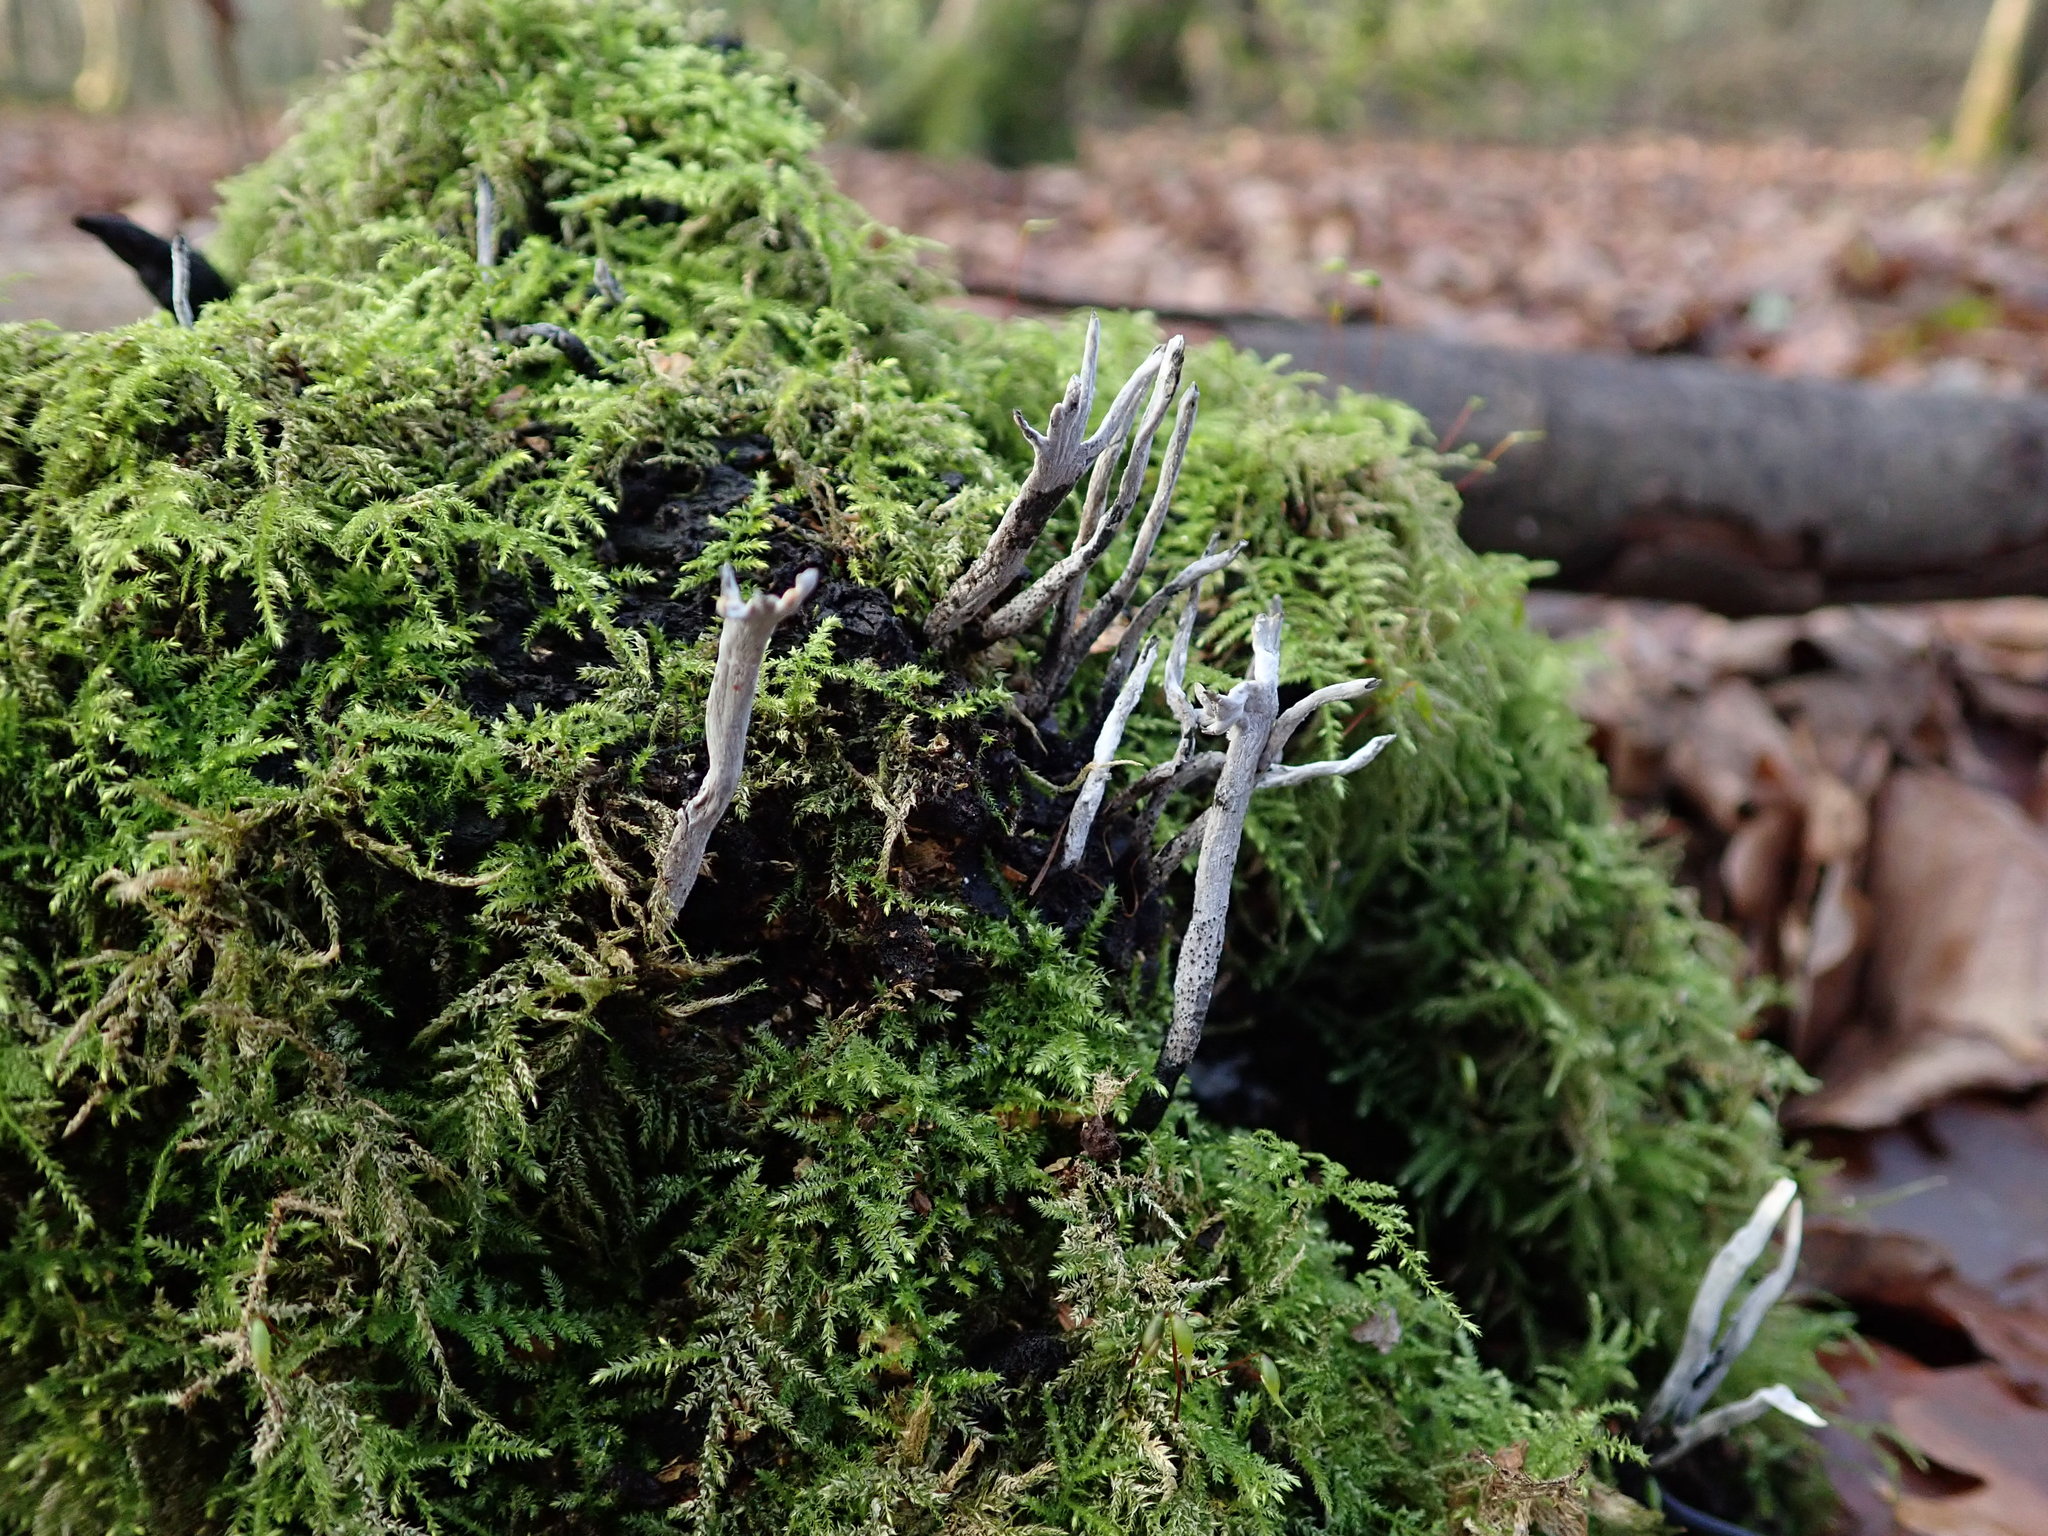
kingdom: Fungi
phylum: Ascomycota
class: Sordariomycetes
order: Xylariales
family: Xylariaceae
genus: Xylaria
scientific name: Xylaria hypoxylon
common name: Candle-snuff fungus
